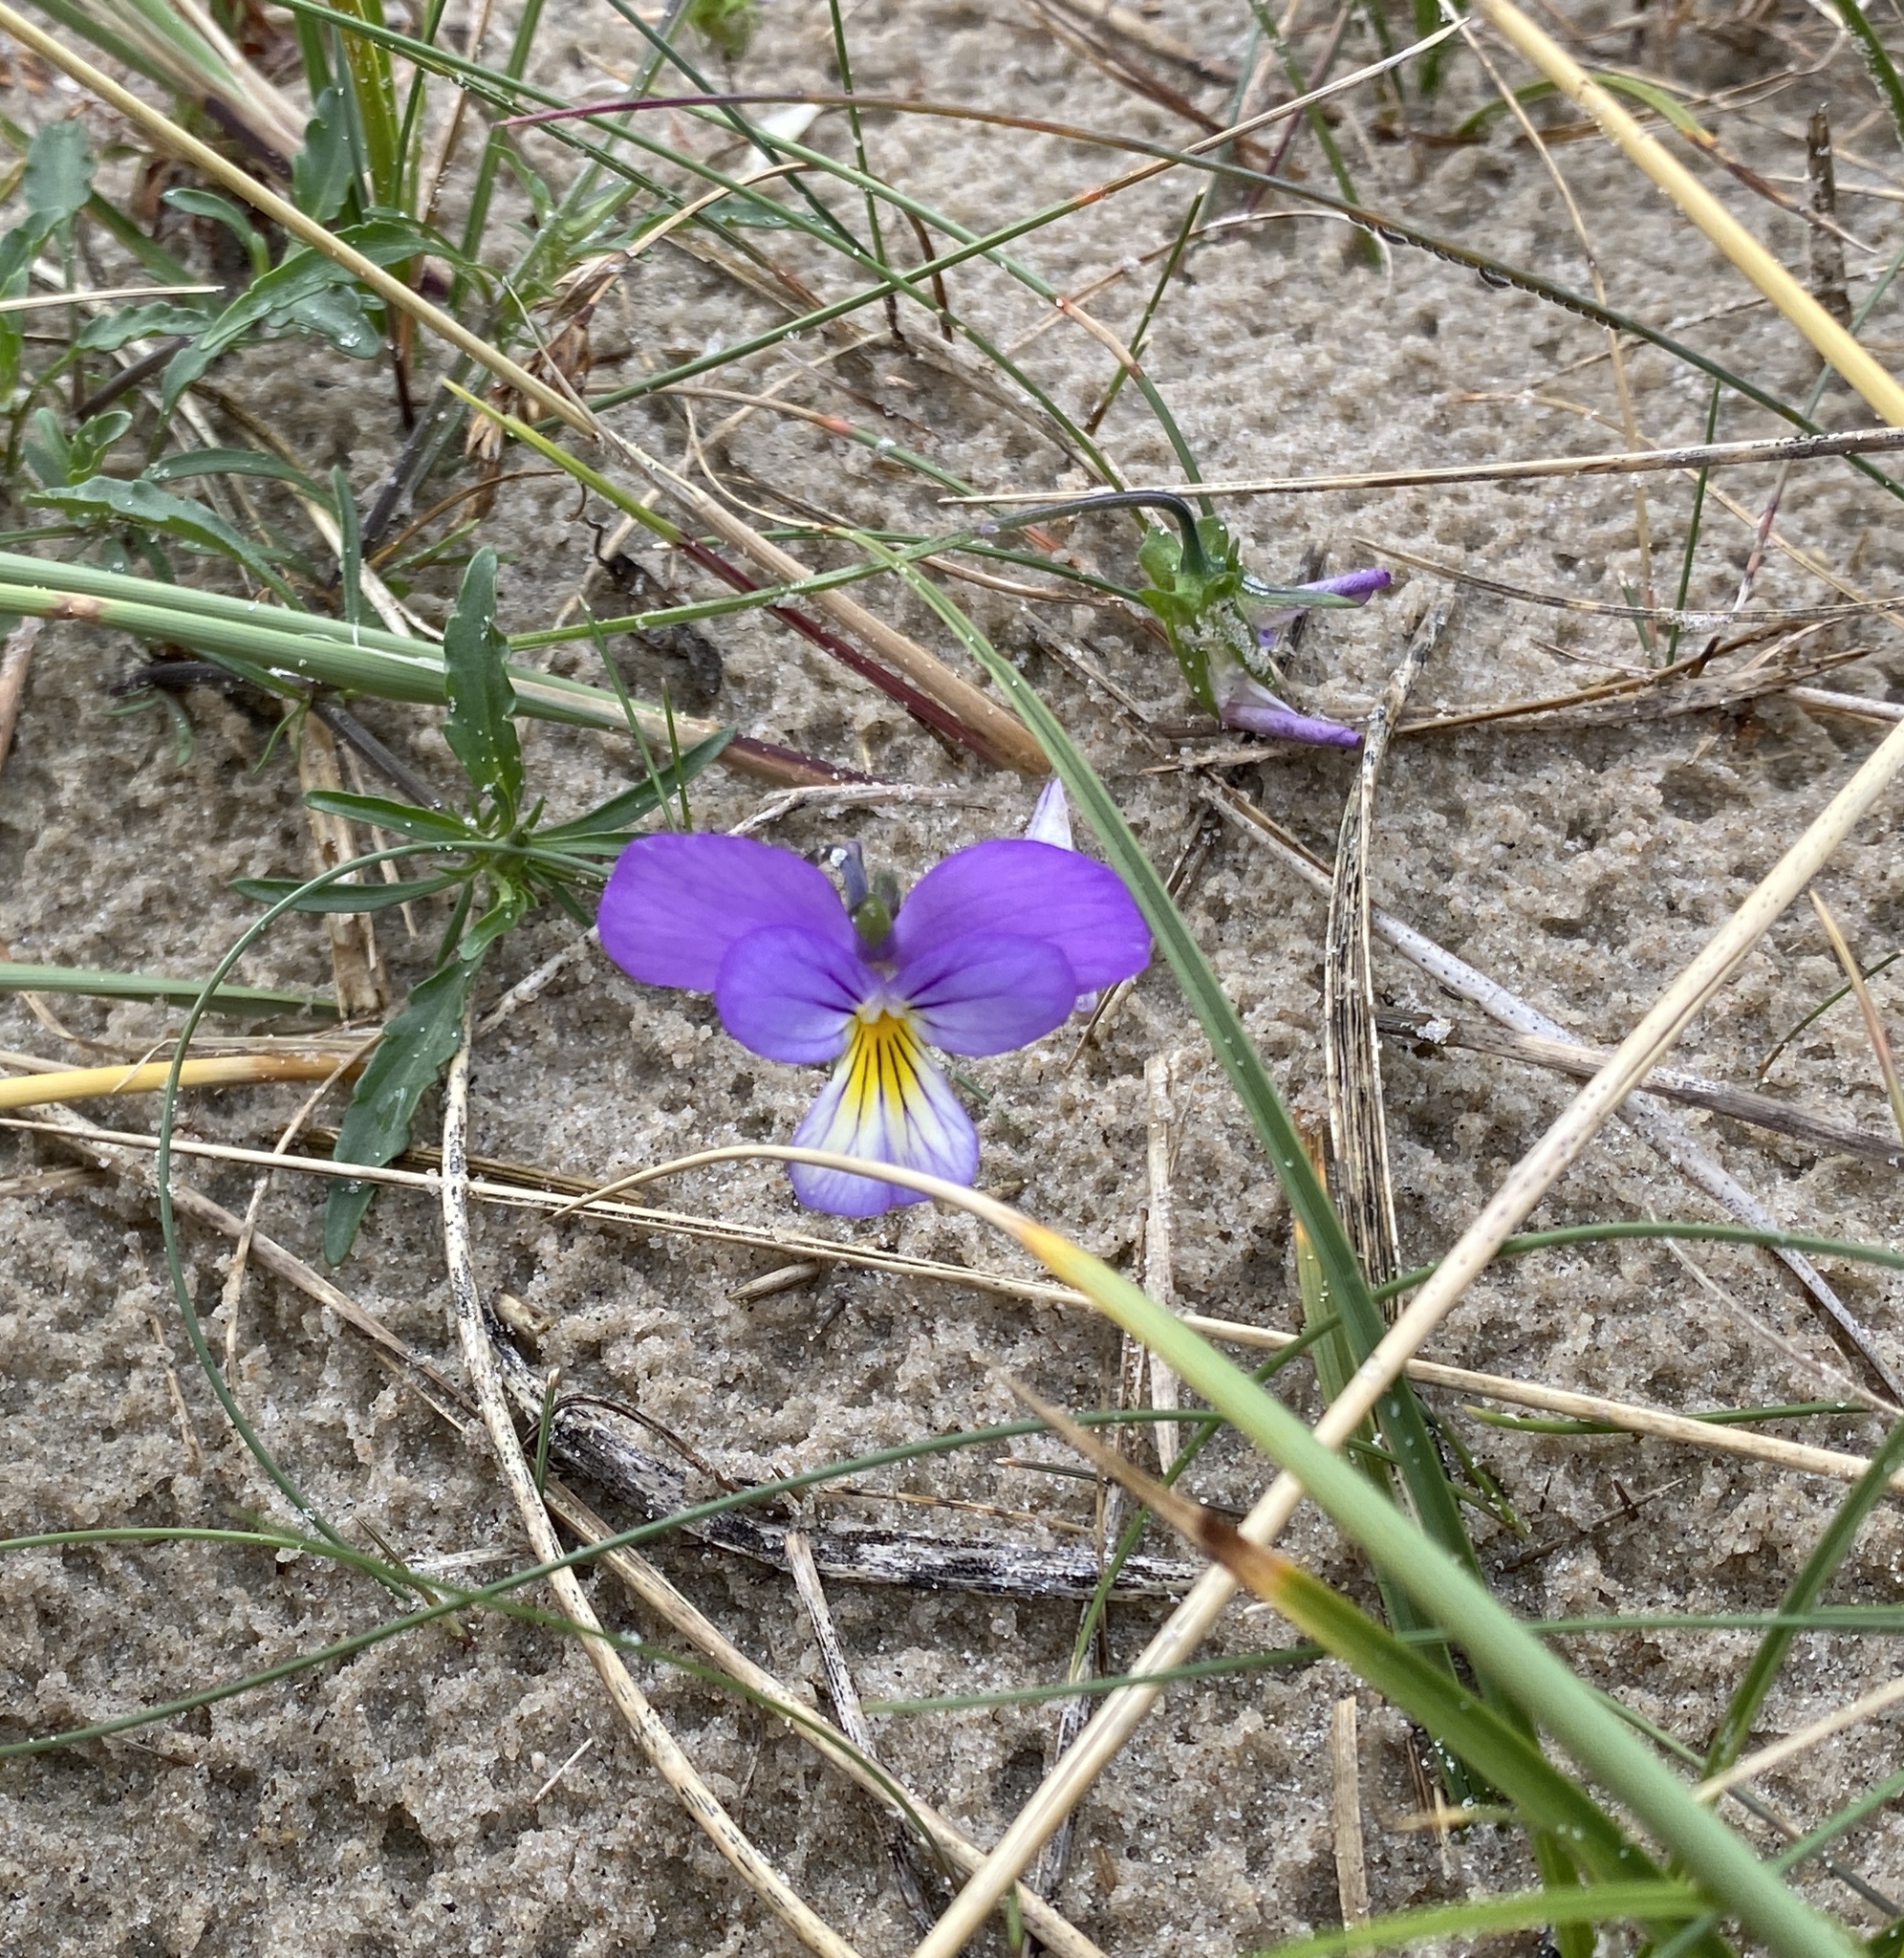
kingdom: Plantae
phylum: Tracheophyta
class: Magnoliopsida
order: Malpighiales
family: Violaceae
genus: Viola
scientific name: Viola tricolor
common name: Pansy
